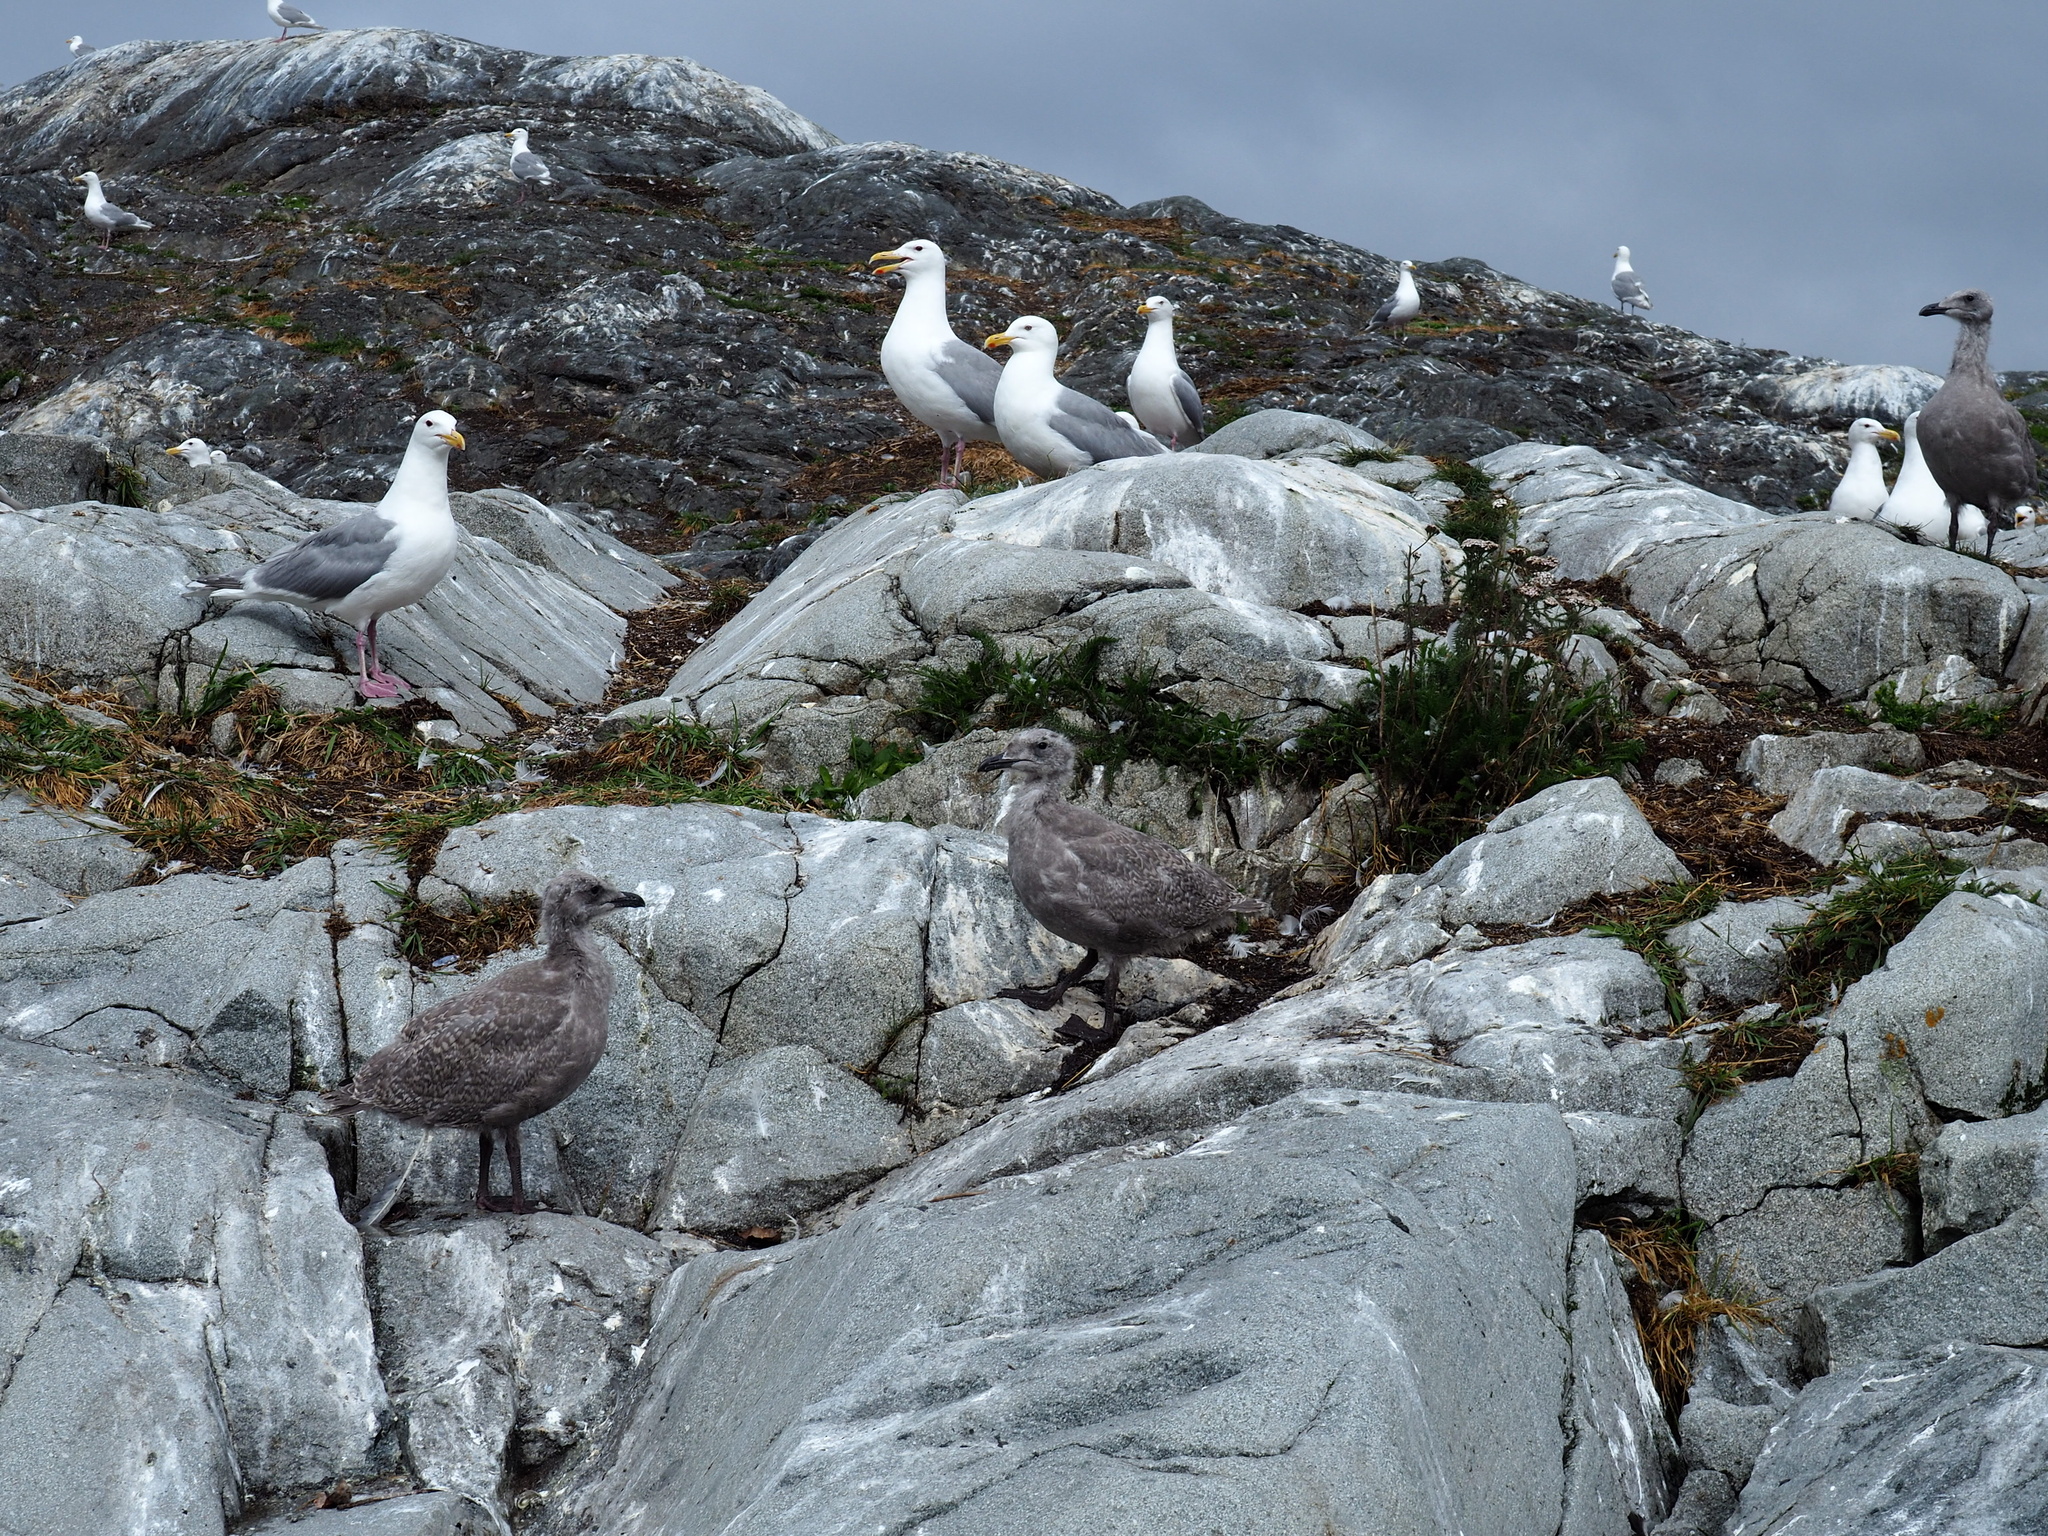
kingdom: Animalia
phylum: Chordata
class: Aves
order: Charadriiformes
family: Laridae
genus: Larus
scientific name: Larus
